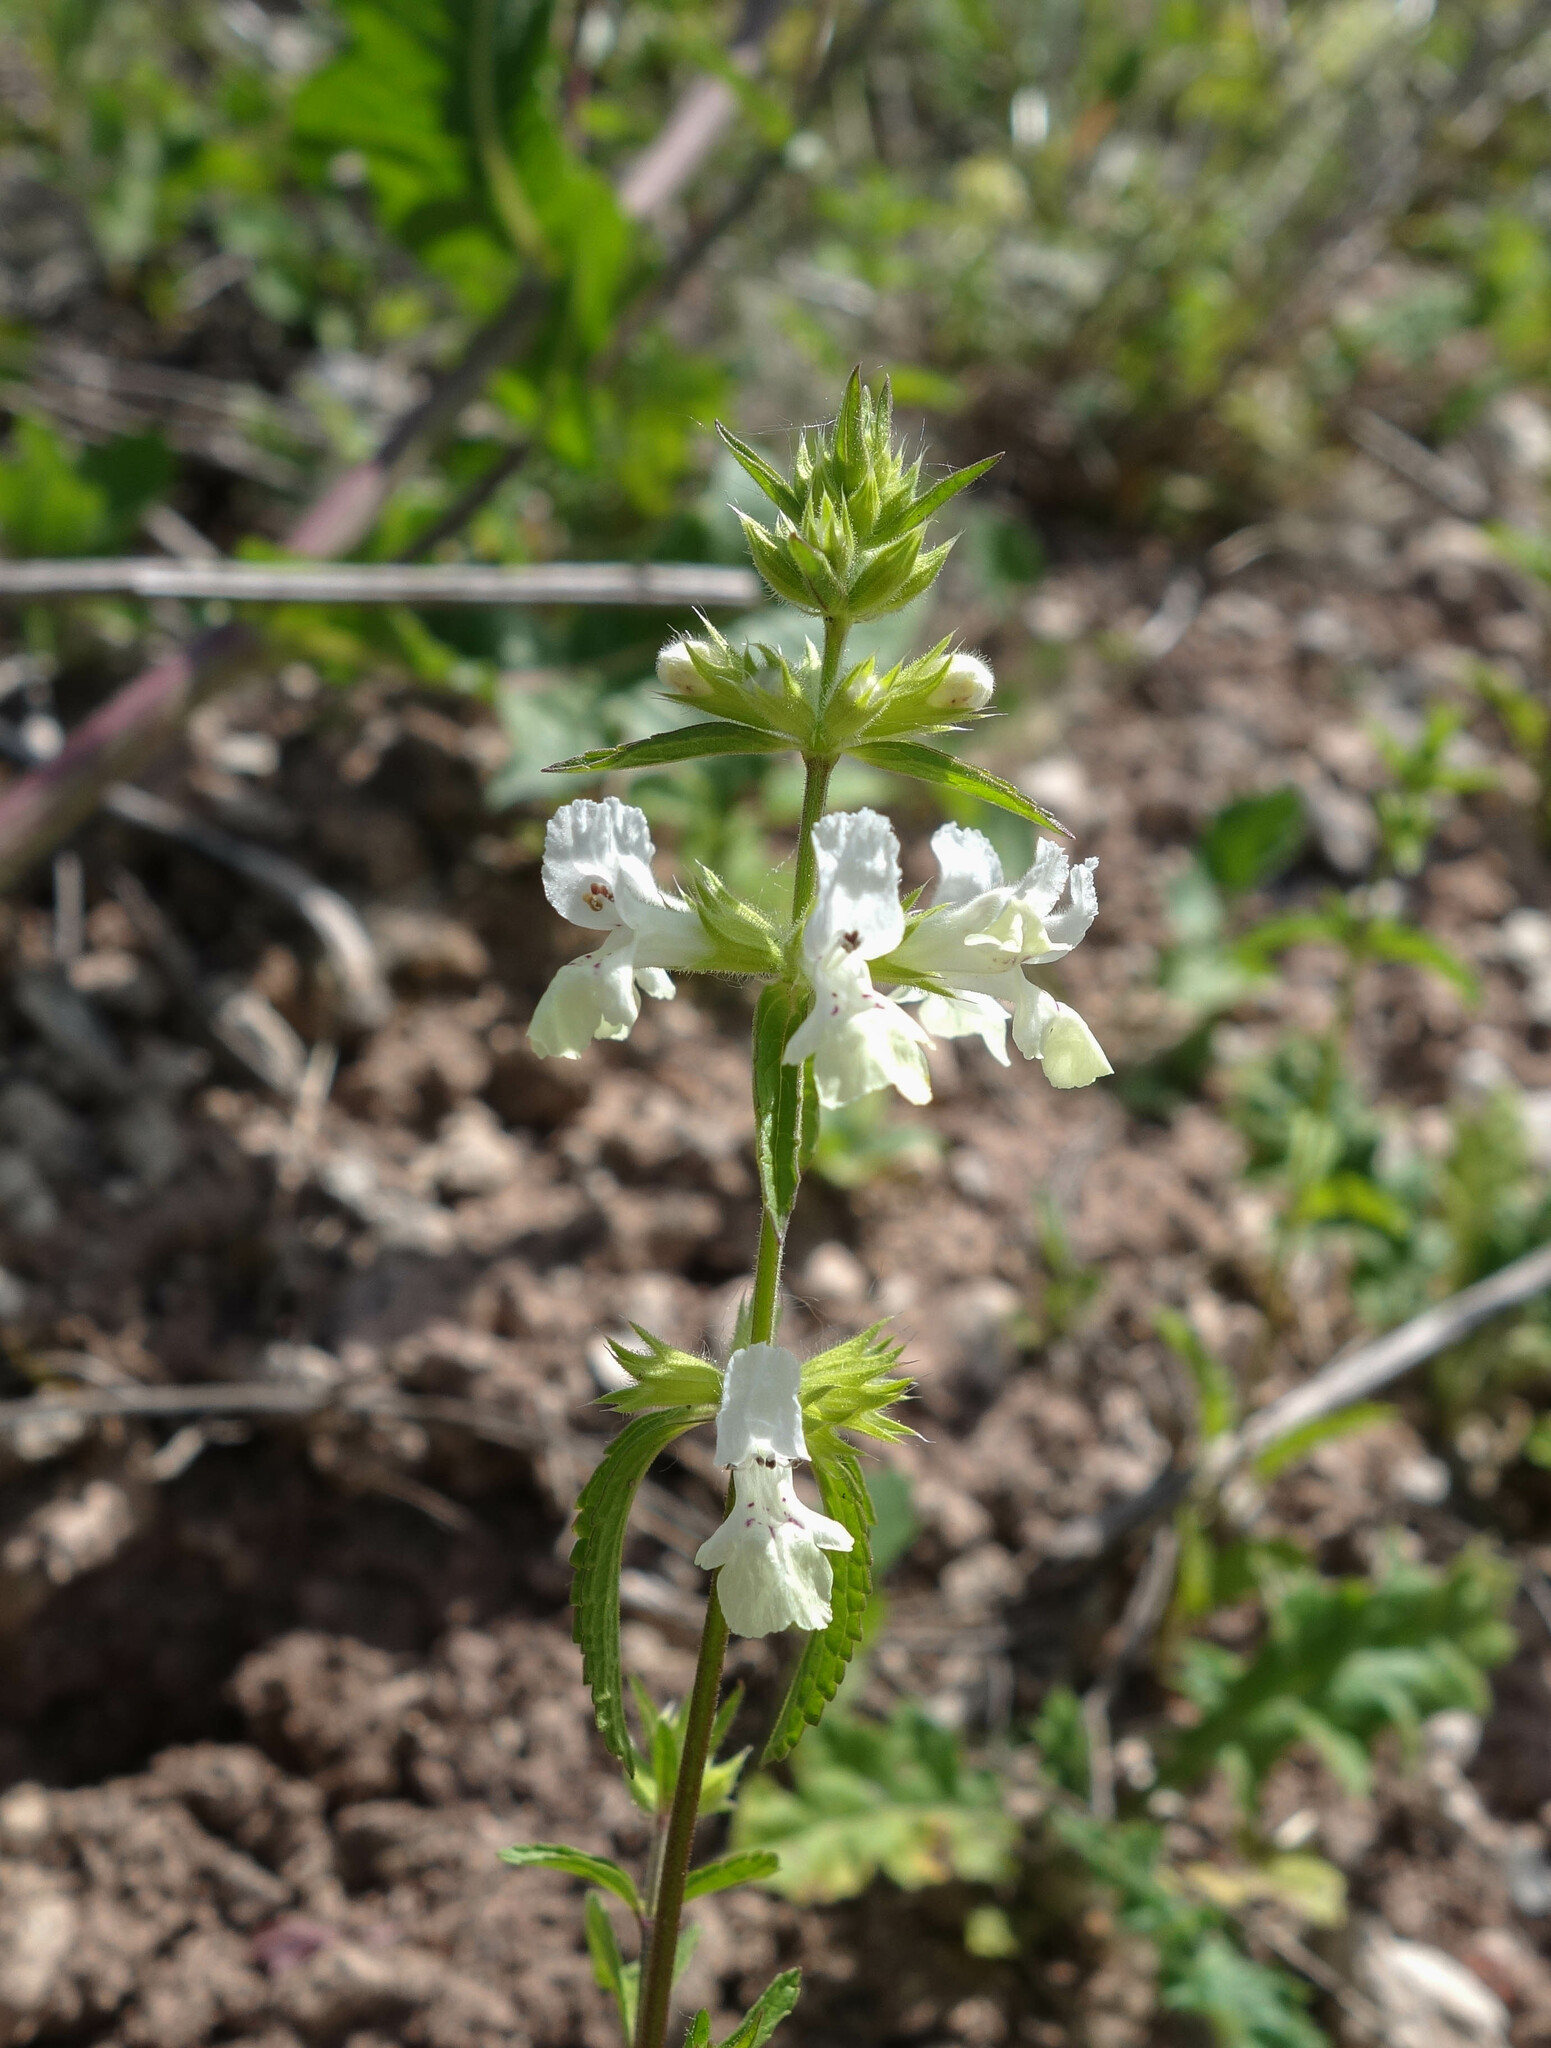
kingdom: Plantae
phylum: Tracheophyta
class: Magnoliopsida
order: Lamiales
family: Lamiaceae
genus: Stachys
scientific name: Stachys annua
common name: Annual yellow-woundwort
